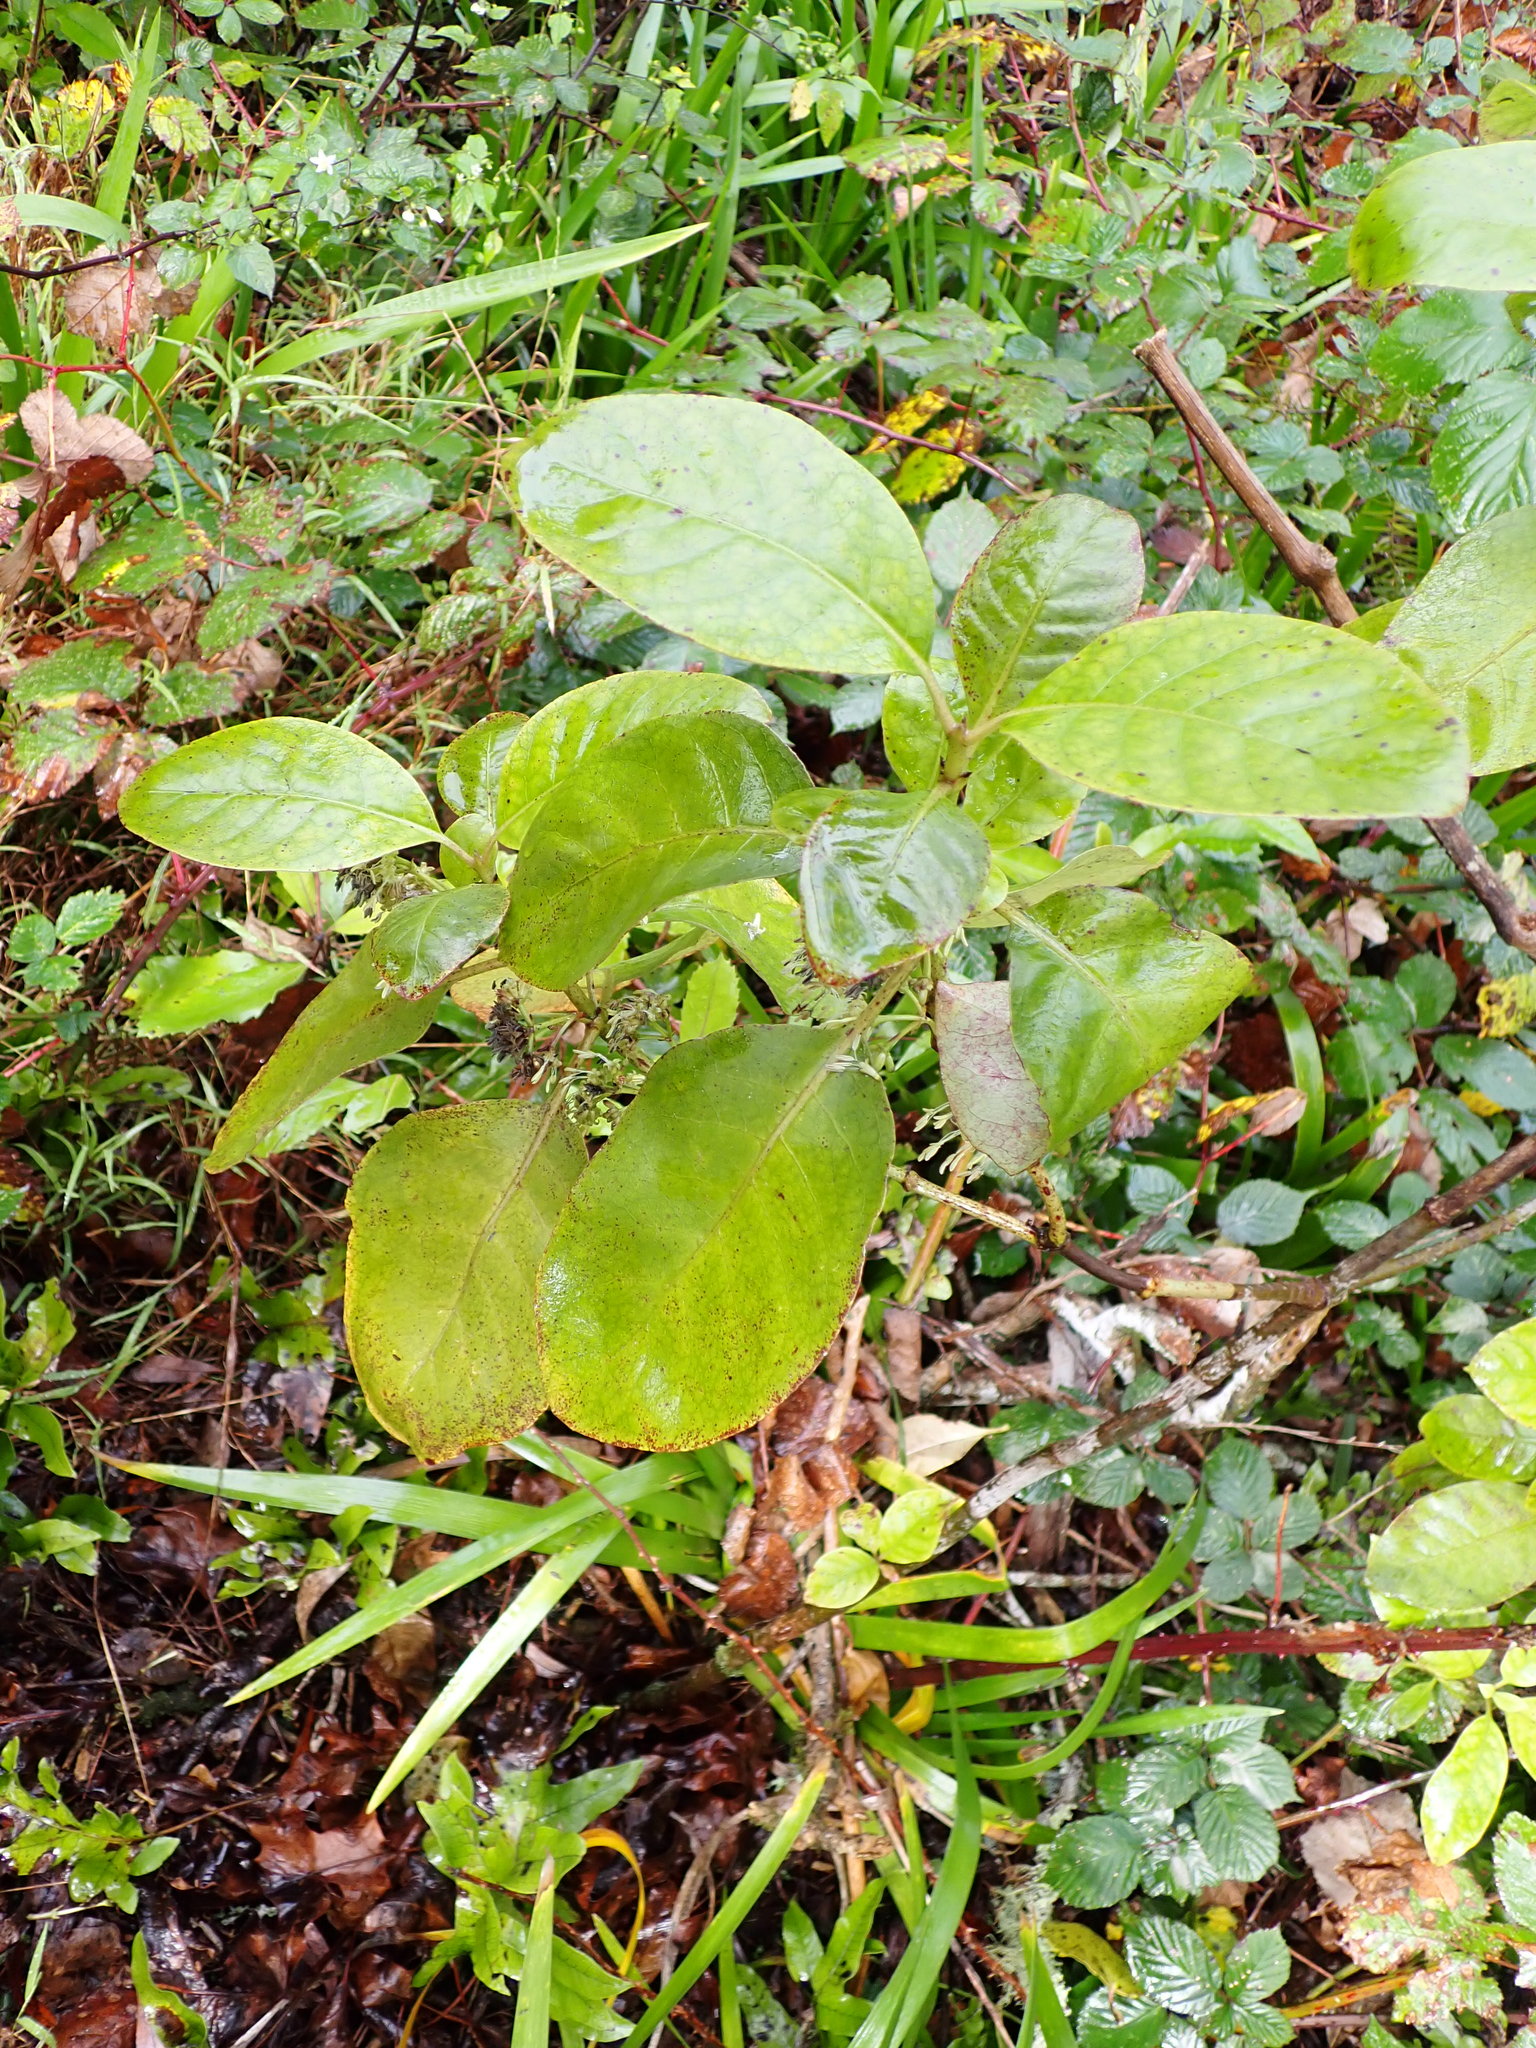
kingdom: Plantae
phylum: Tracheophyta
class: Magnoliopsida
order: Gentianales
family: Rubiaceae
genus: Coprosma
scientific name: Coprosma autumnalis
